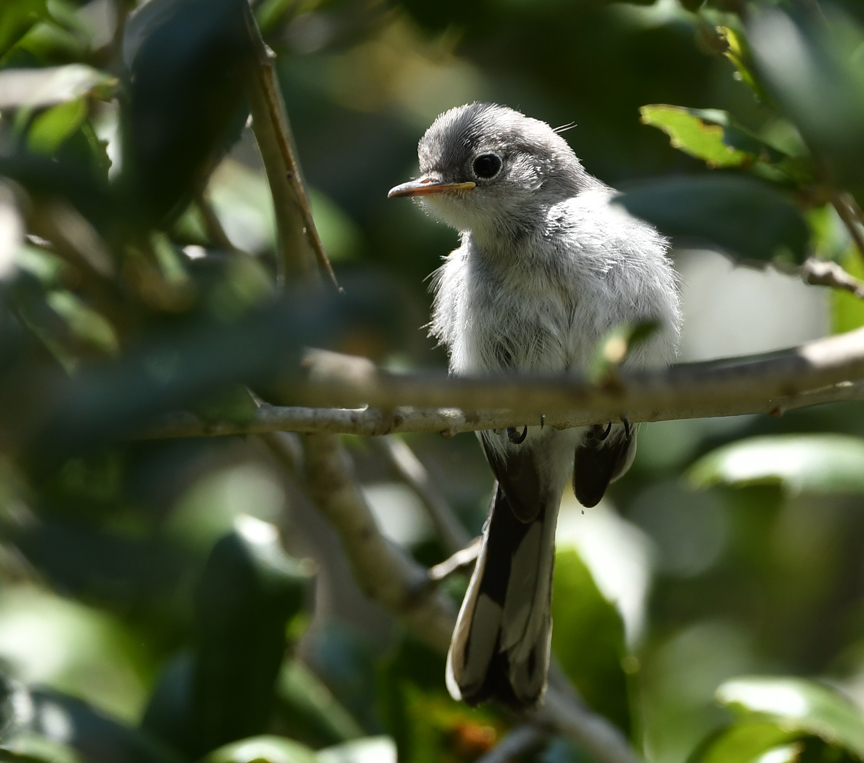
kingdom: Animalia
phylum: Chordata
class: Aves
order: Passeriformes
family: Polioptilidae
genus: Polioptila
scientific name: Polioptila caerulea
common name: Blue-gray gnatcatcher
